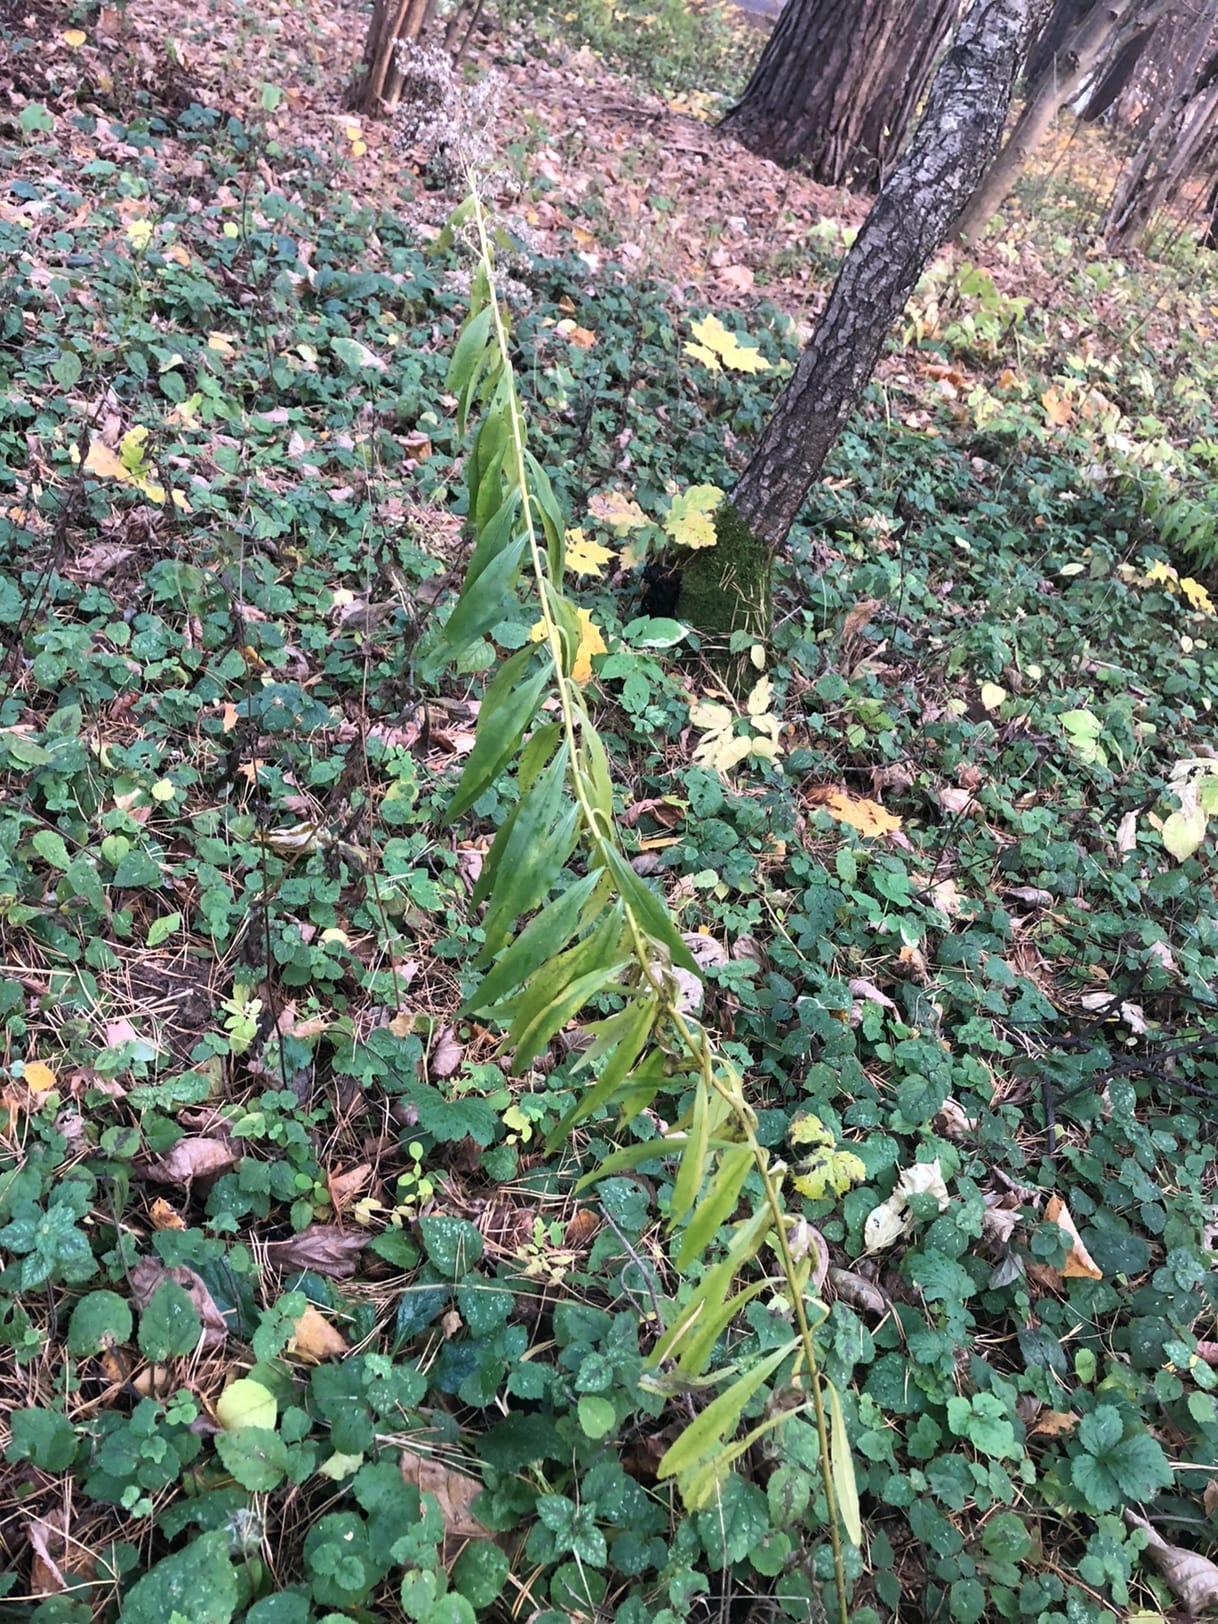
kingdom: Plantae
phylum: Tracheophyta
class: Magnoliopsida
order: Asterales
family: Asteraceae
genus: Solidago
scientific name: Solidago canadensis
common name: Canada goldenrod
